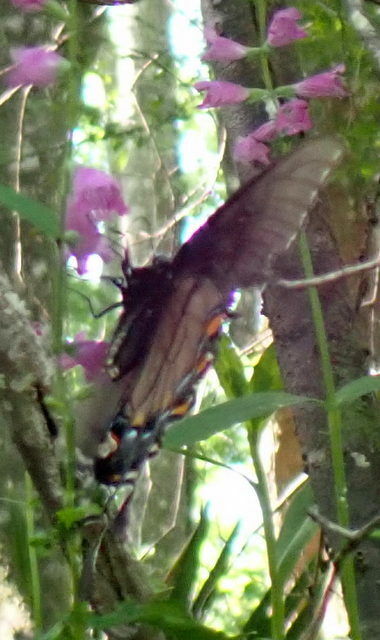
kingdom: Animalia
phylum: Arthropoda
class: Insecta
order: Lepidoptera
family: Papilionidae
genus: Papilio
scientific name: Papilio glaucus
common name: Tiger swallowtail
